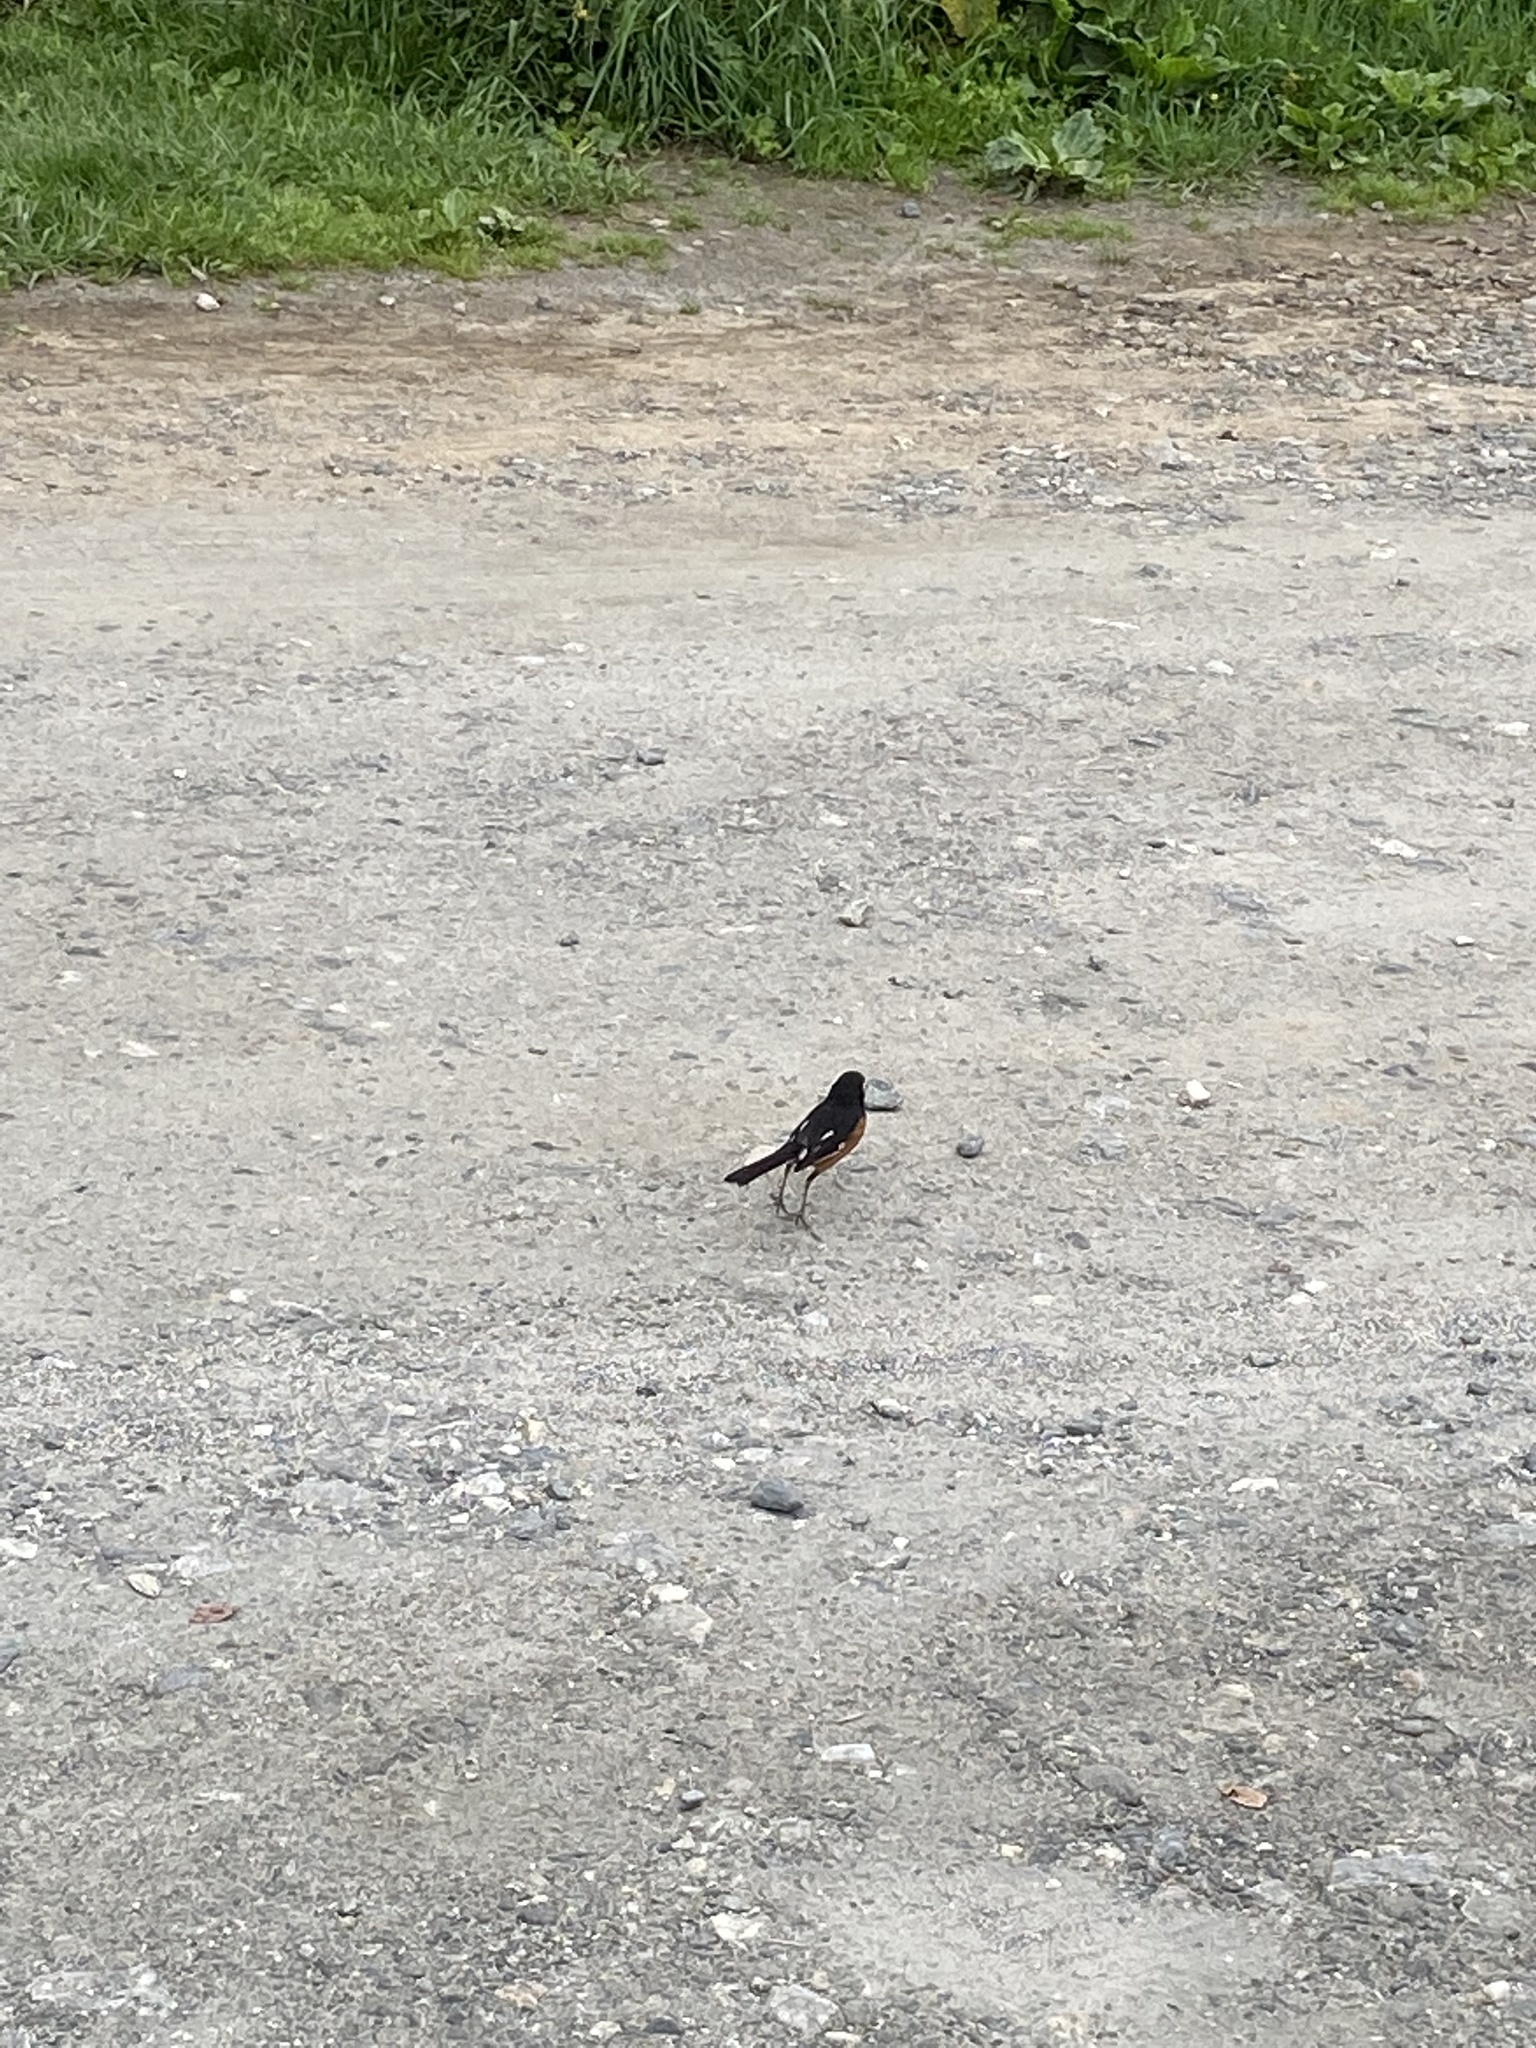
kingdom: Animalia
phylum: Chordata
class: Aves
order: Passeriformes
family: Passerellidae
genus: Pipilo
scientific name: Pipilo erythrophthalmus
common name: Eastern towhee
